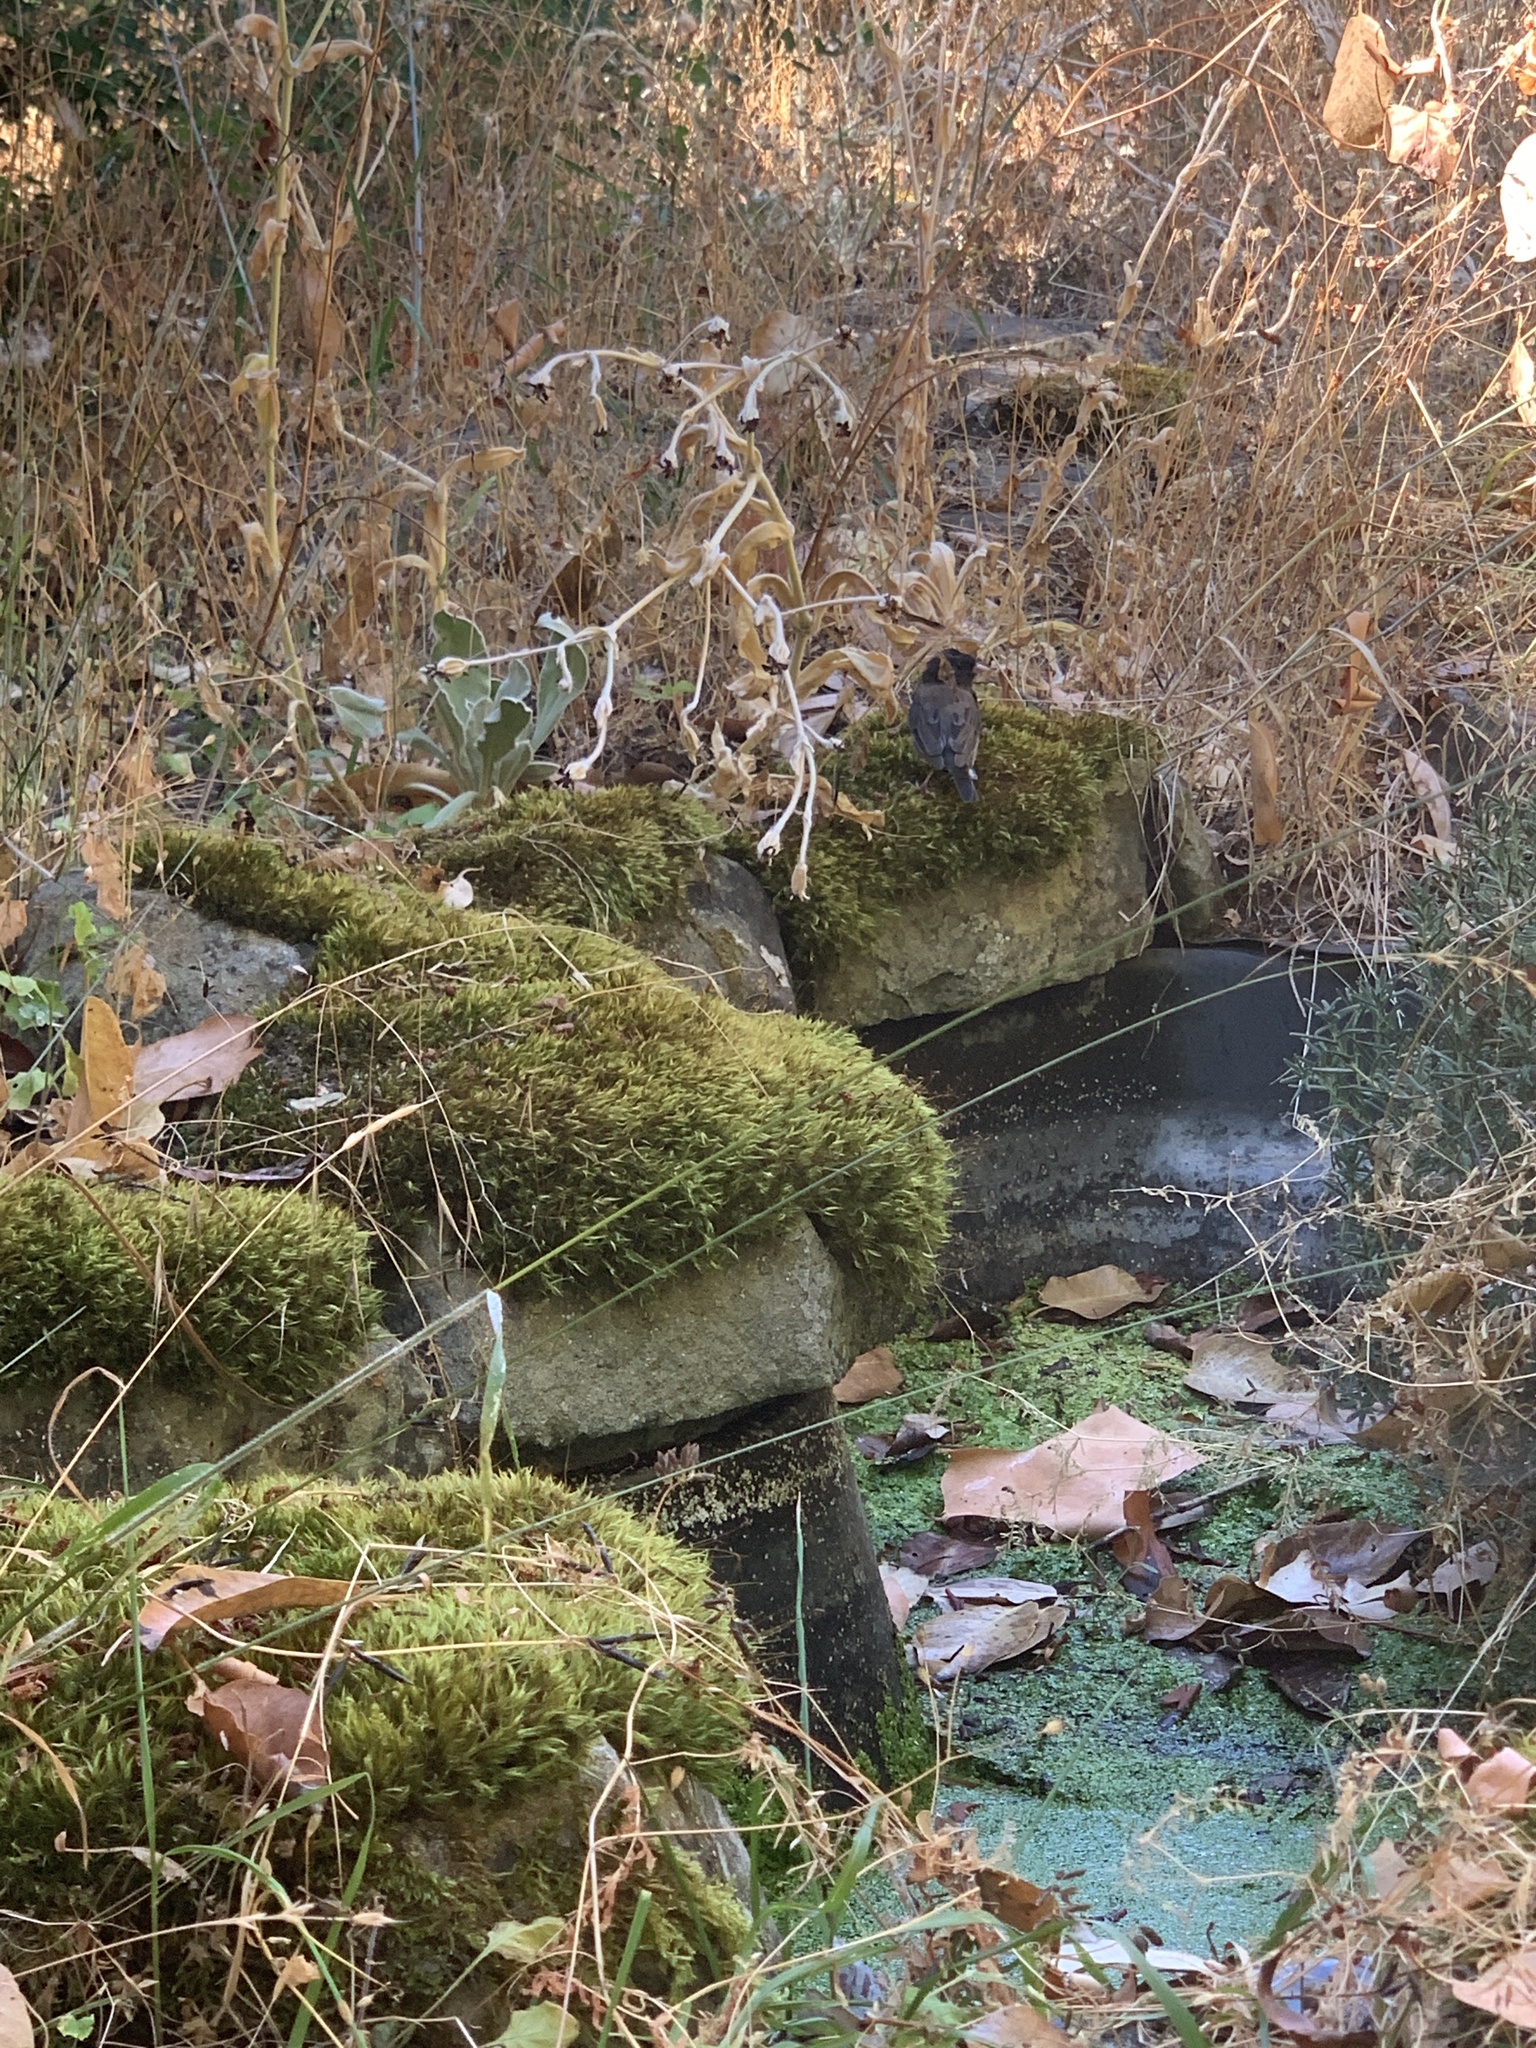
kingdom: Animalia
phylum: Chordata
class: Aves
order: Passeriformes
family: Passerellidae
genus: Junco
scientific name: Junco hyemalis
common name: Dark-eyed junco
